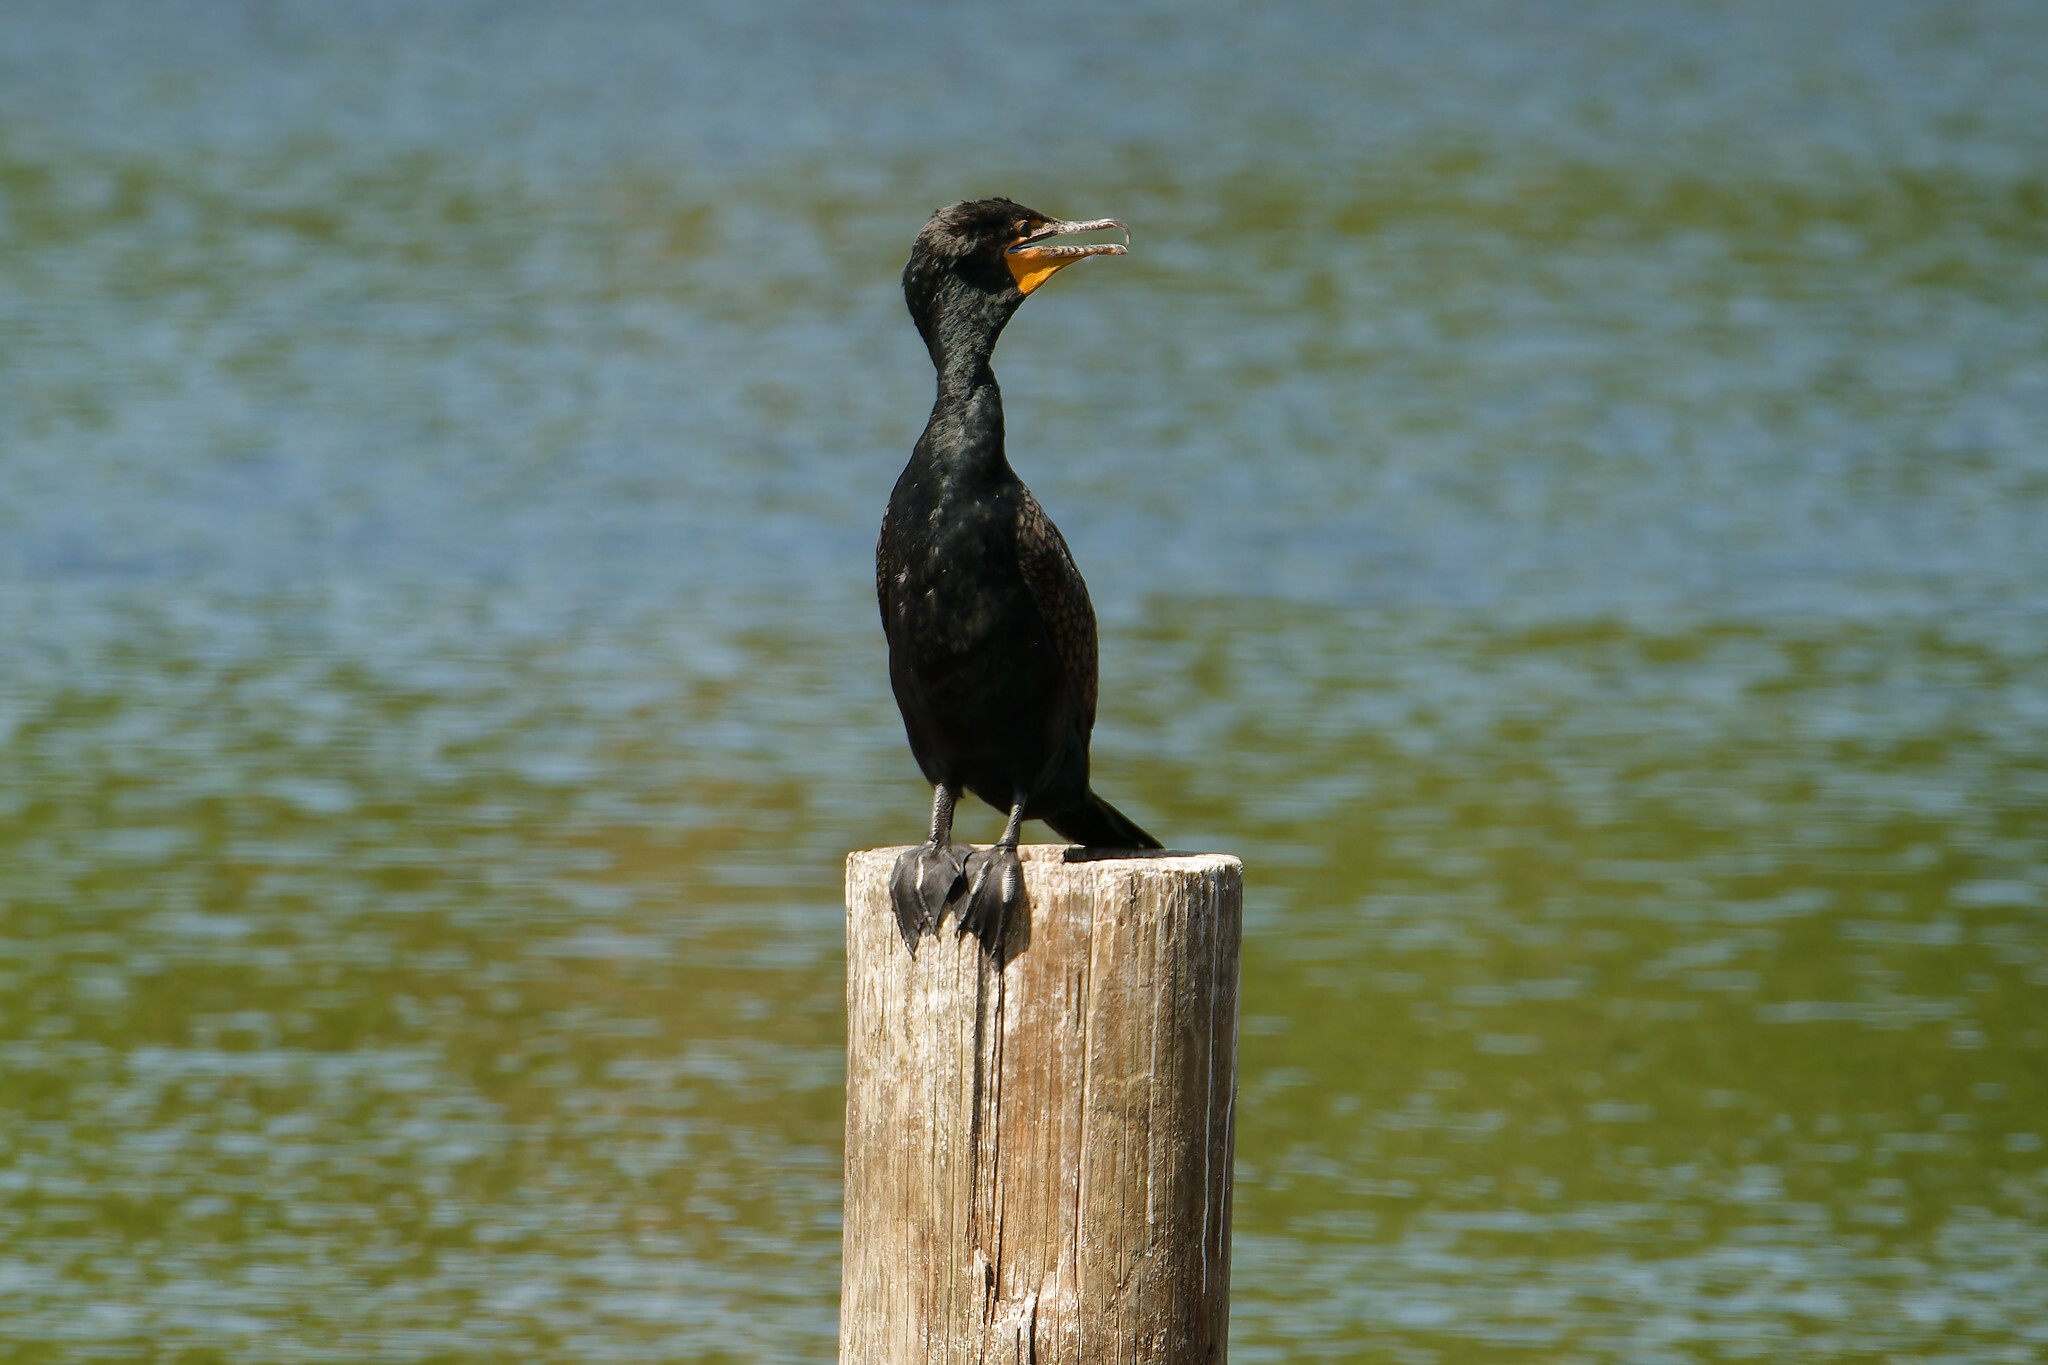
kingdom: Animalia
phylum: Chordata
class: Aves
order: Suliformes
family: Phalacrocoracidae
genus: Phalacrocorax
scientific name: Phalacrocorax auritus
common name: Double-crested cormorant
